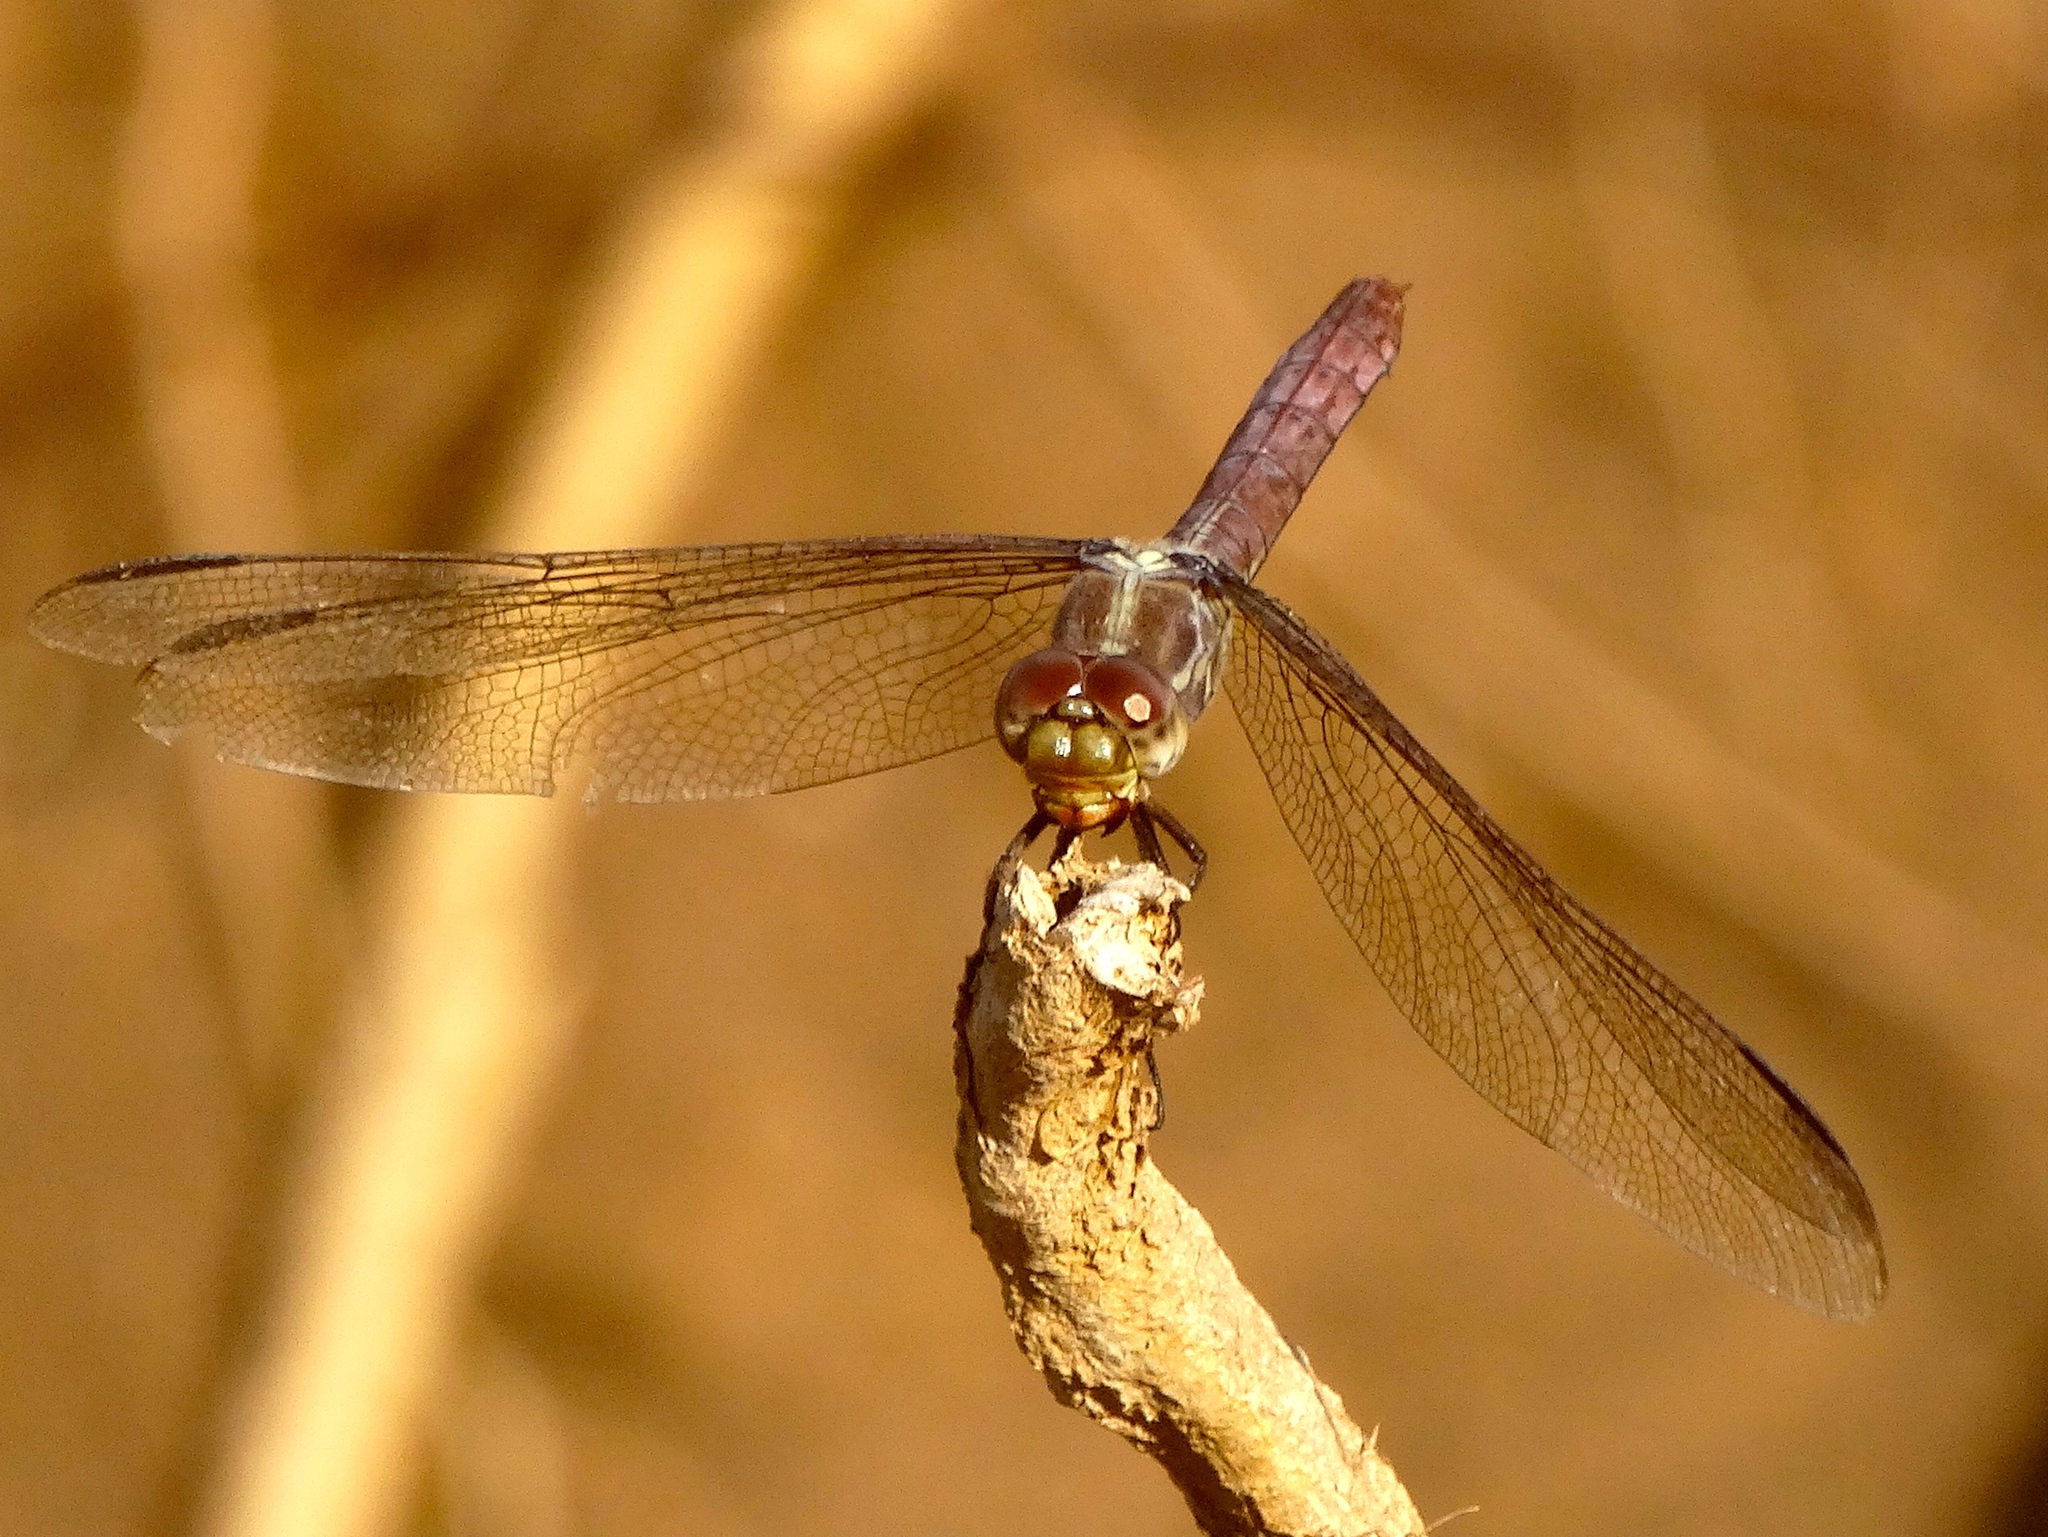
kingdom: Animalia
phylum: Arthropoda
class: Insecta
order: Odonata
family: Libellulidae
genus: Orthemis
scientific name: Orthemis
